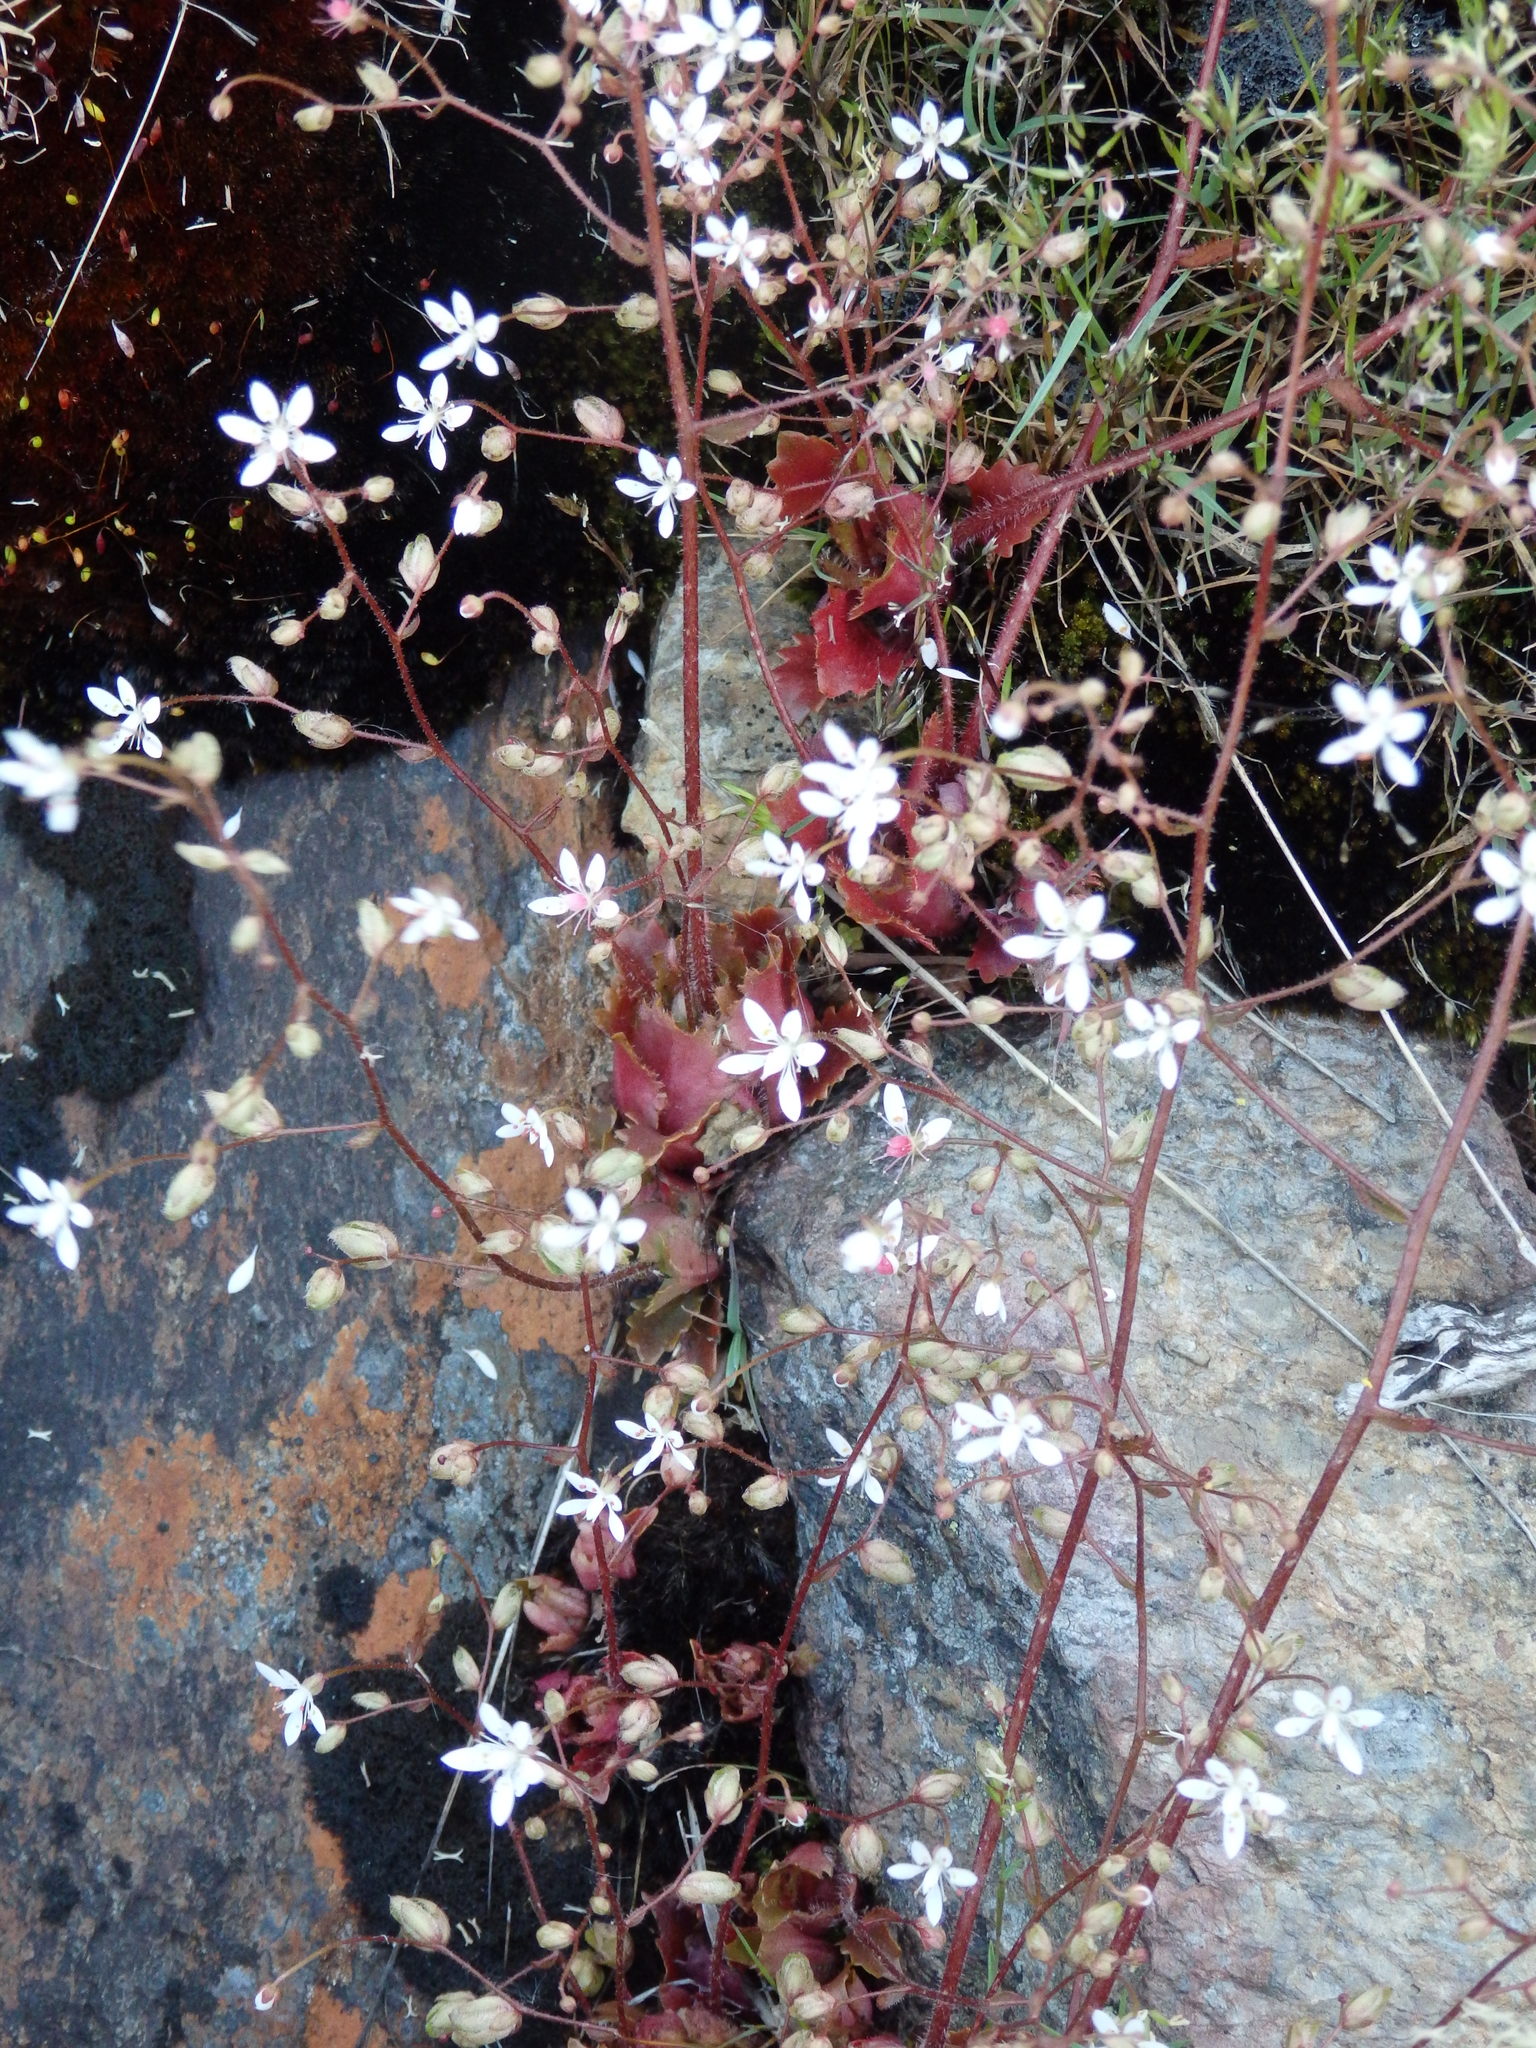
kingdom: Plantae
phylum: Tracheophyta
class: Magnoliopsida
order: Saxifragales
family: Saxifragaceae
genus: Micranthes
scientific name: Micranthes clusii
